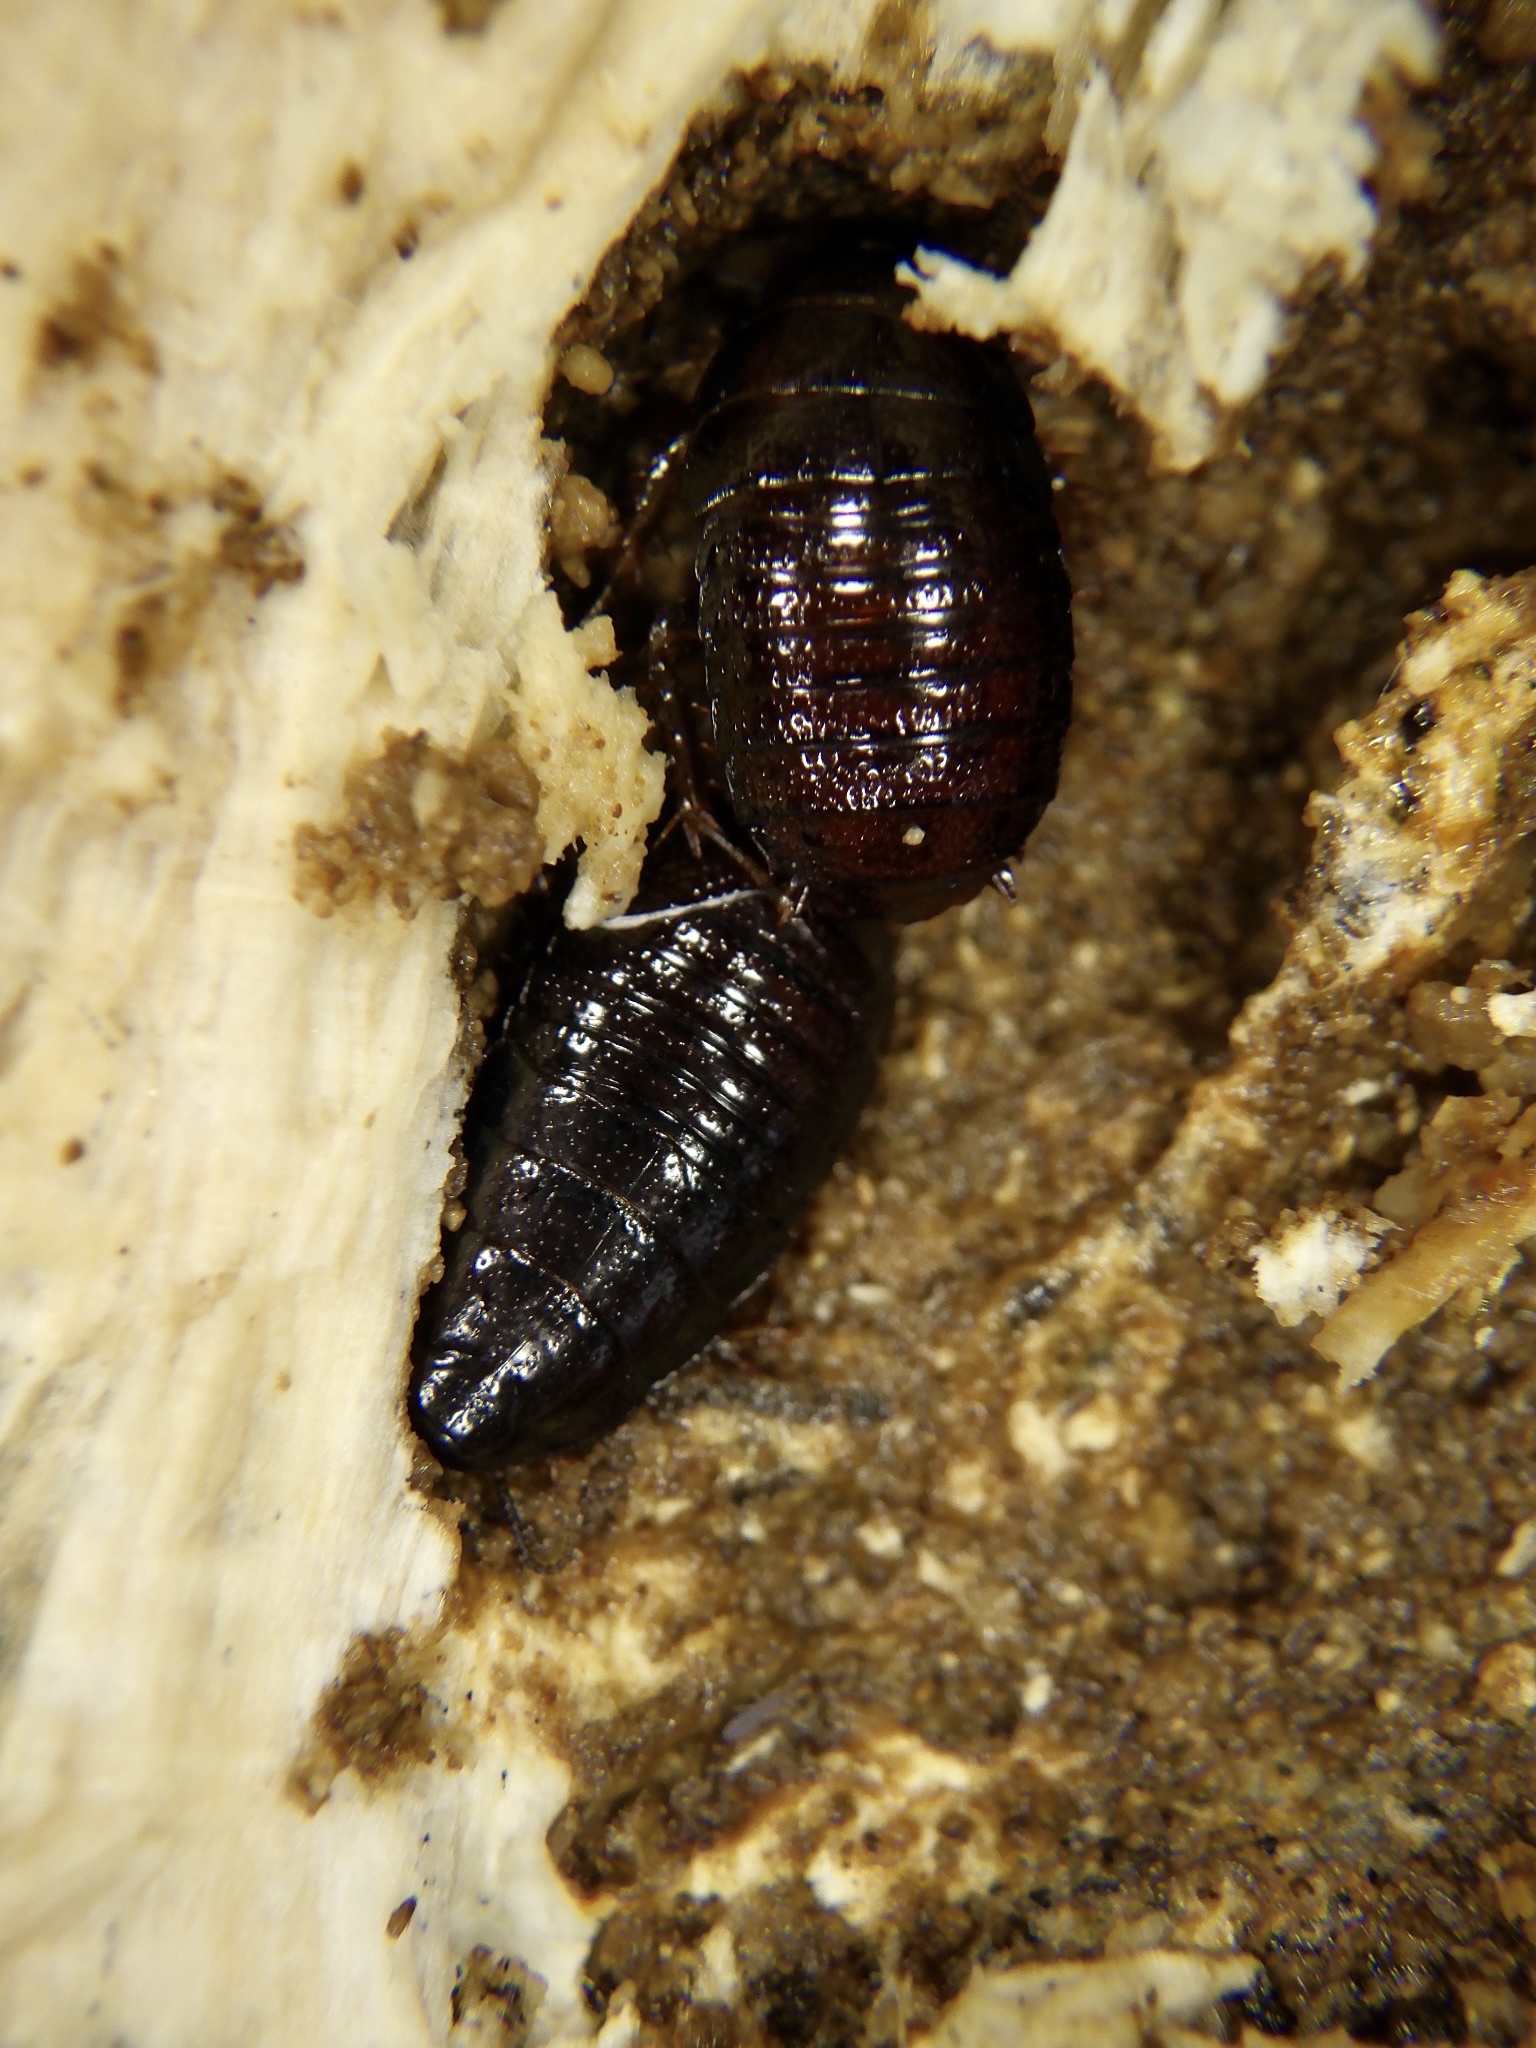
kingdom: Animalia
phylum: Arthropoda
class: Insecta
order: Blattodea
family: Blaberidae
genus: Panesthia
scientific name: Panesthia angustipennis
